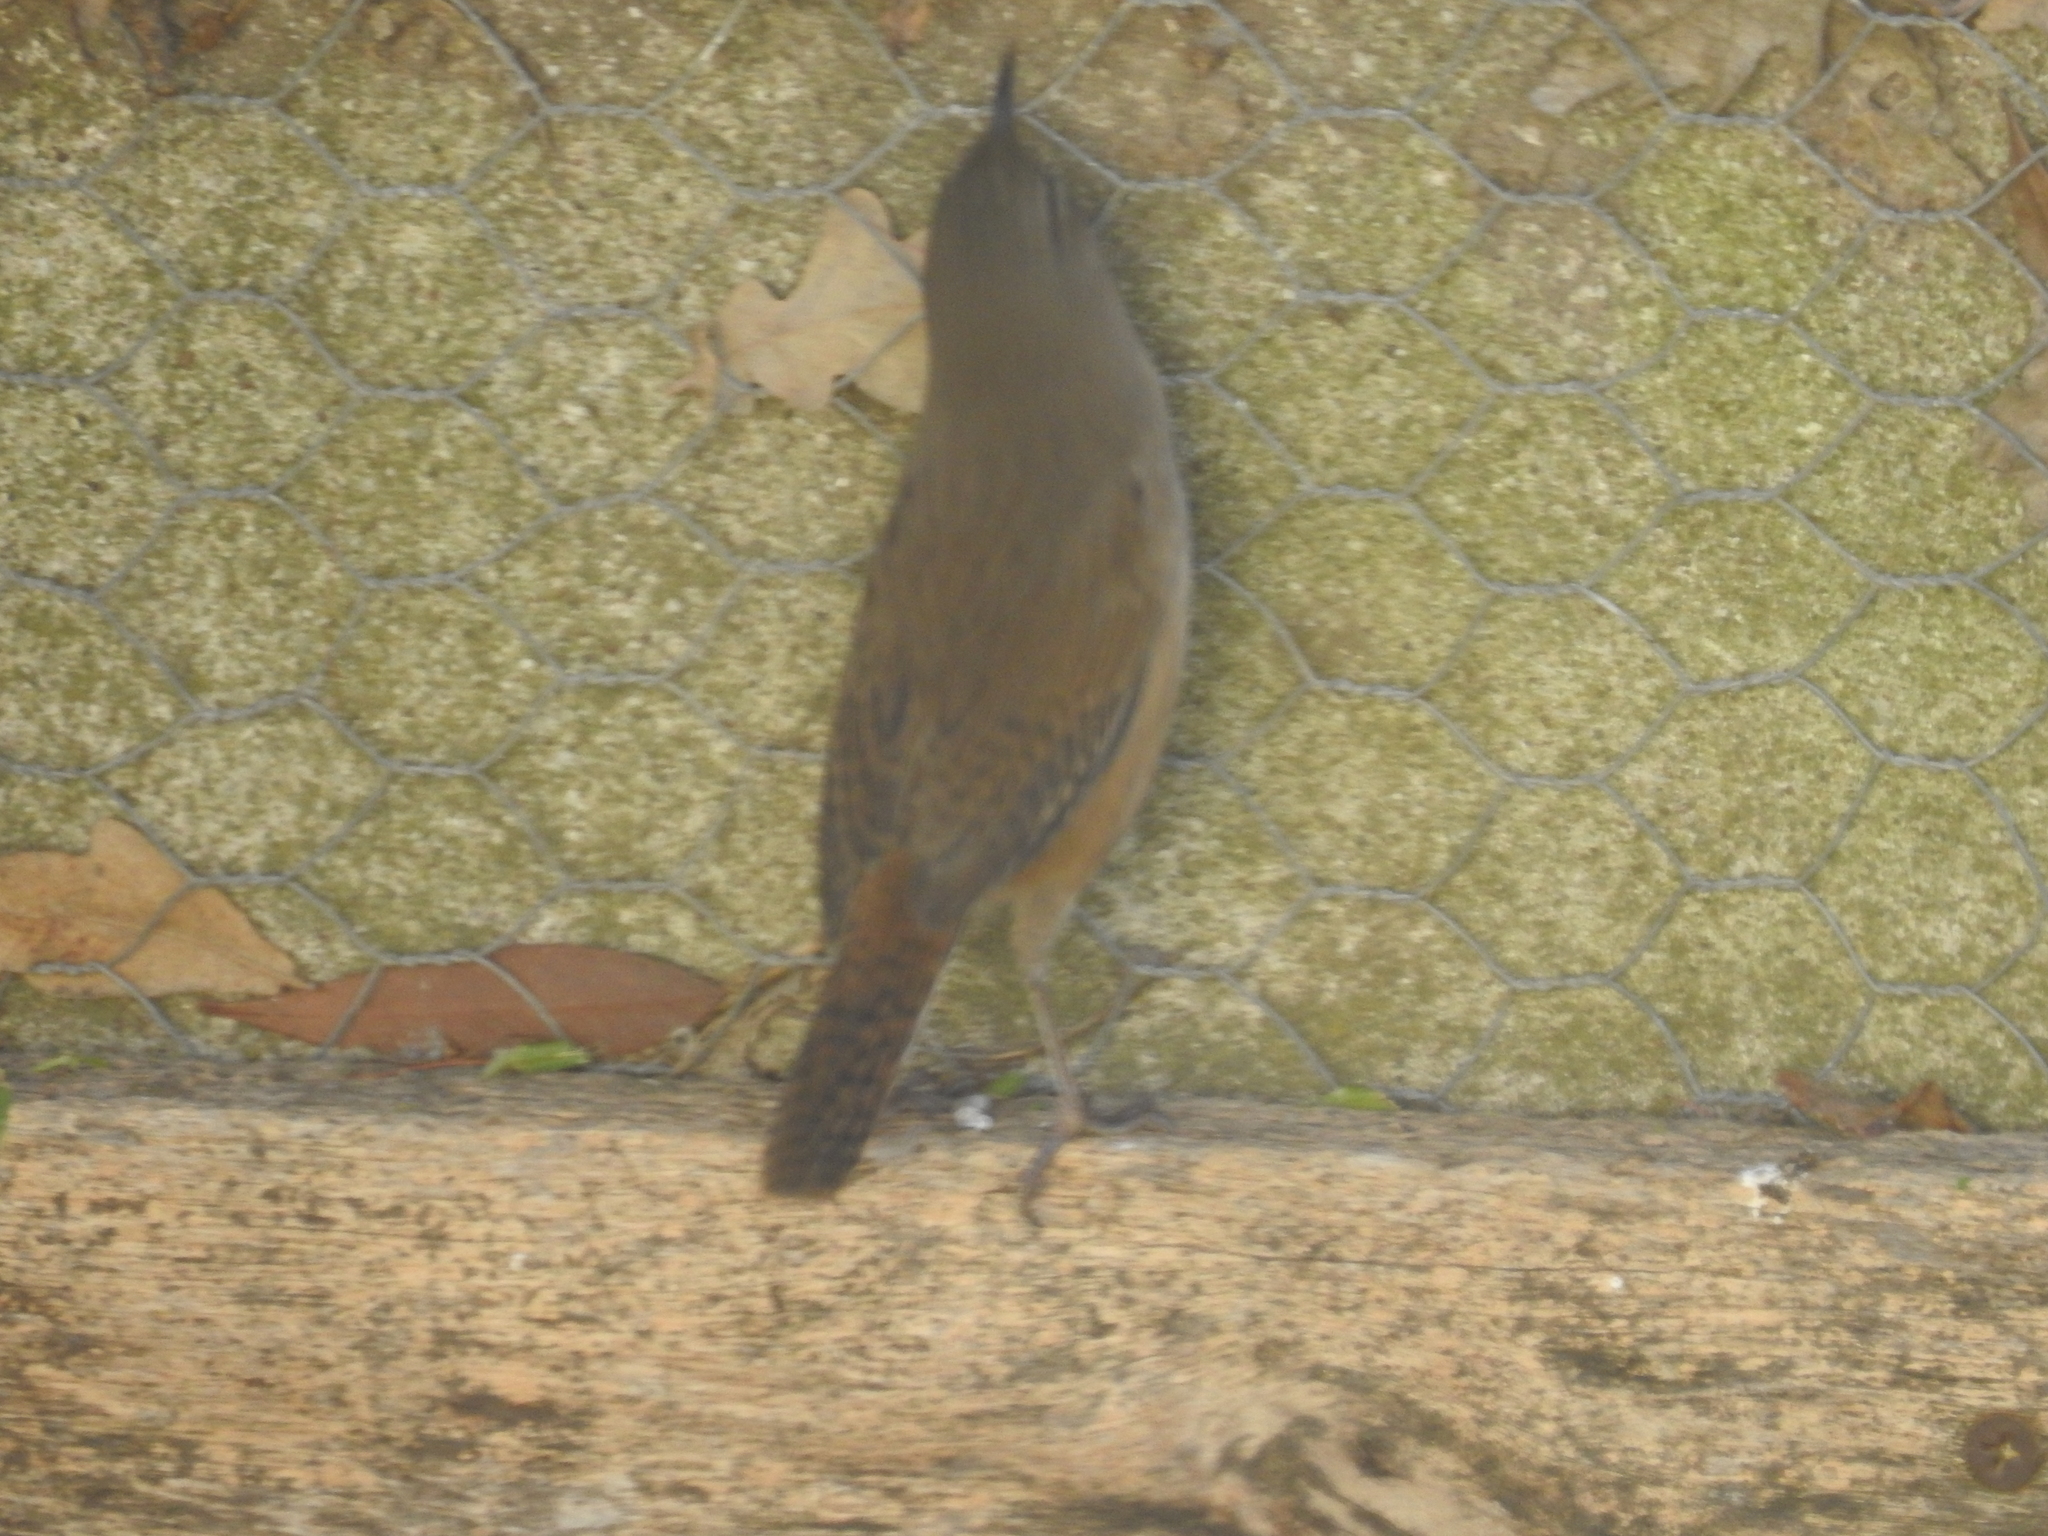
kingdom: Animalia
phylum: Chordata
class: Aves
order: Passeriformes
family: Troglodytidae
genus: Troglodytes
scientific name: Troglodytes aedon
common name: House wren
